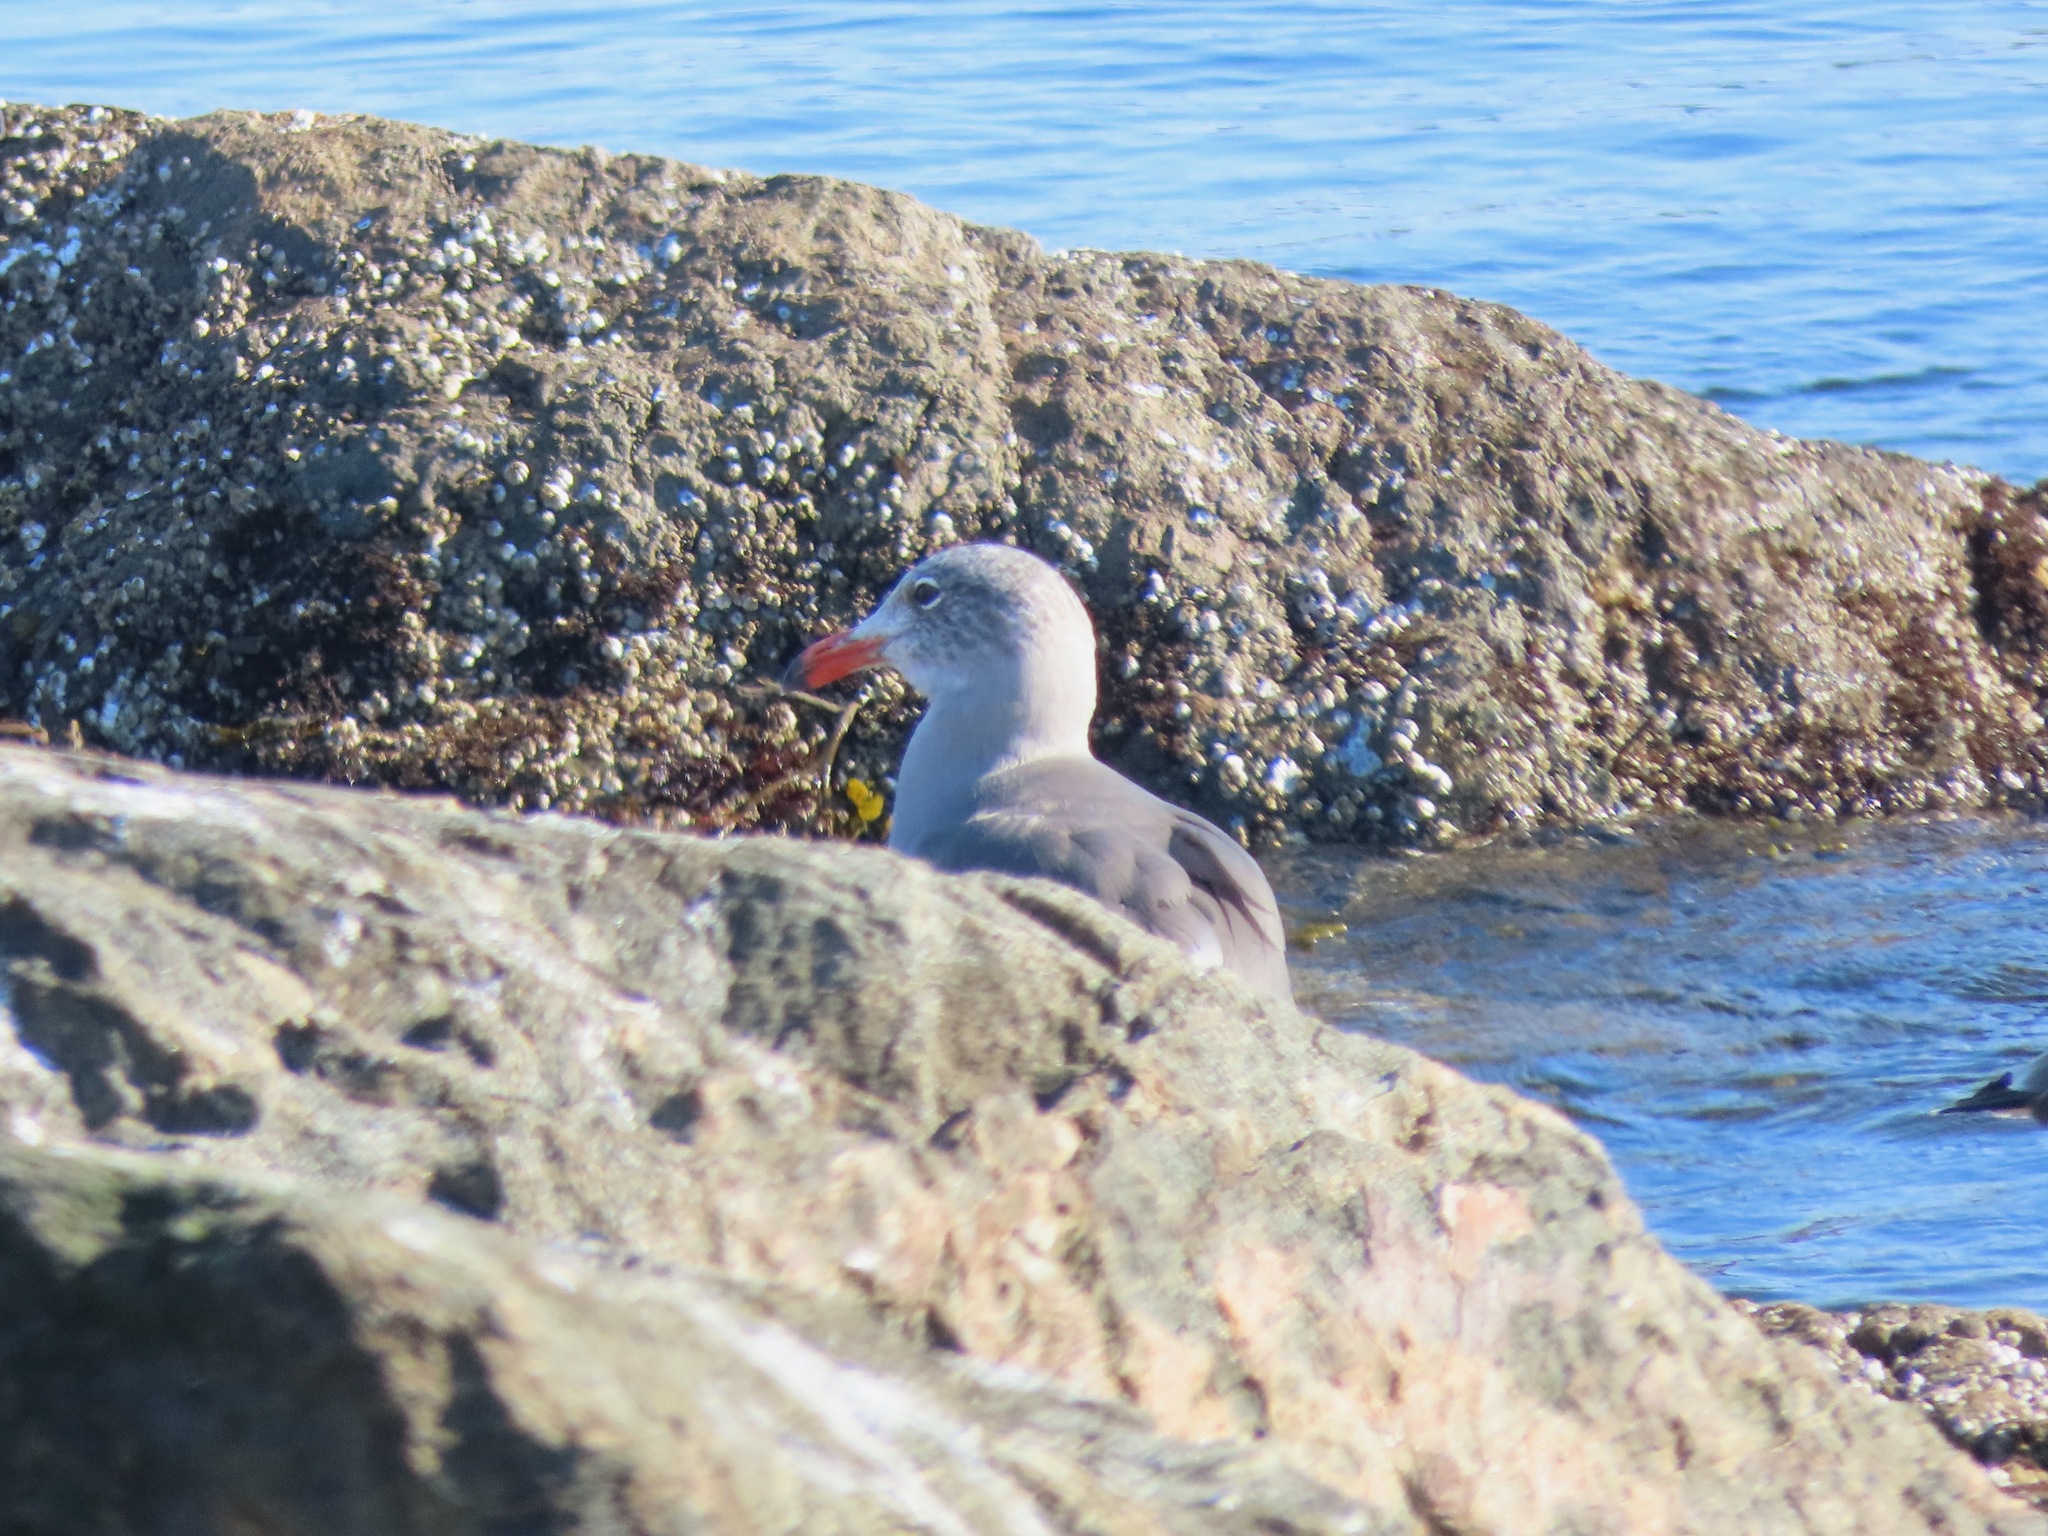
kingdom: Animalia
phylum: Chordata
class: Aves
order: Charadriiformes
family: Laridae
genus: Larus
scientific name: Larus heermanni
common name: Heermann's gull
